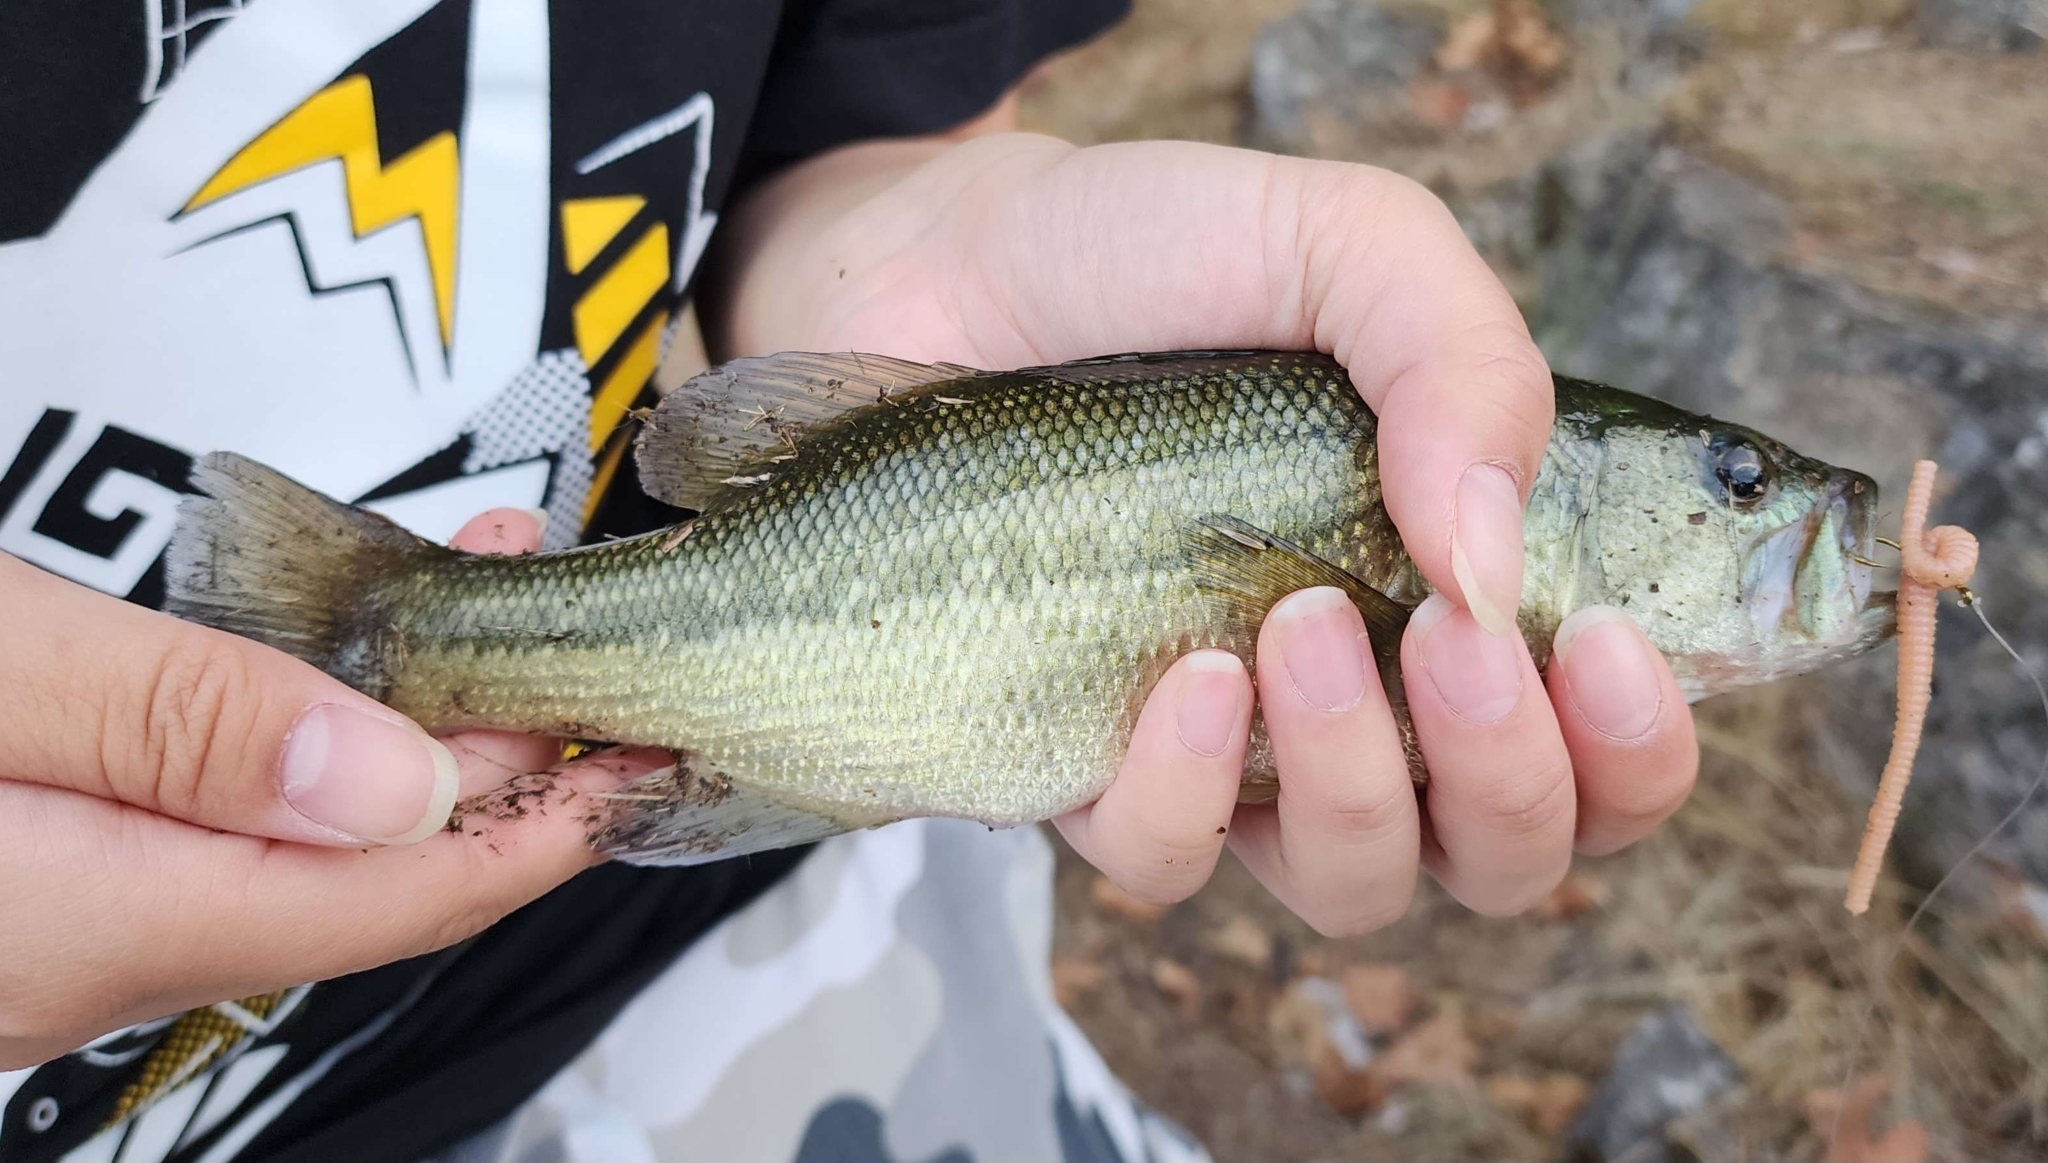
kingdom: Animalia
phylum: Chordata
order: Perciformes
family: Centrarchidae
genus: Micropterus
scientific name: Micropterus
